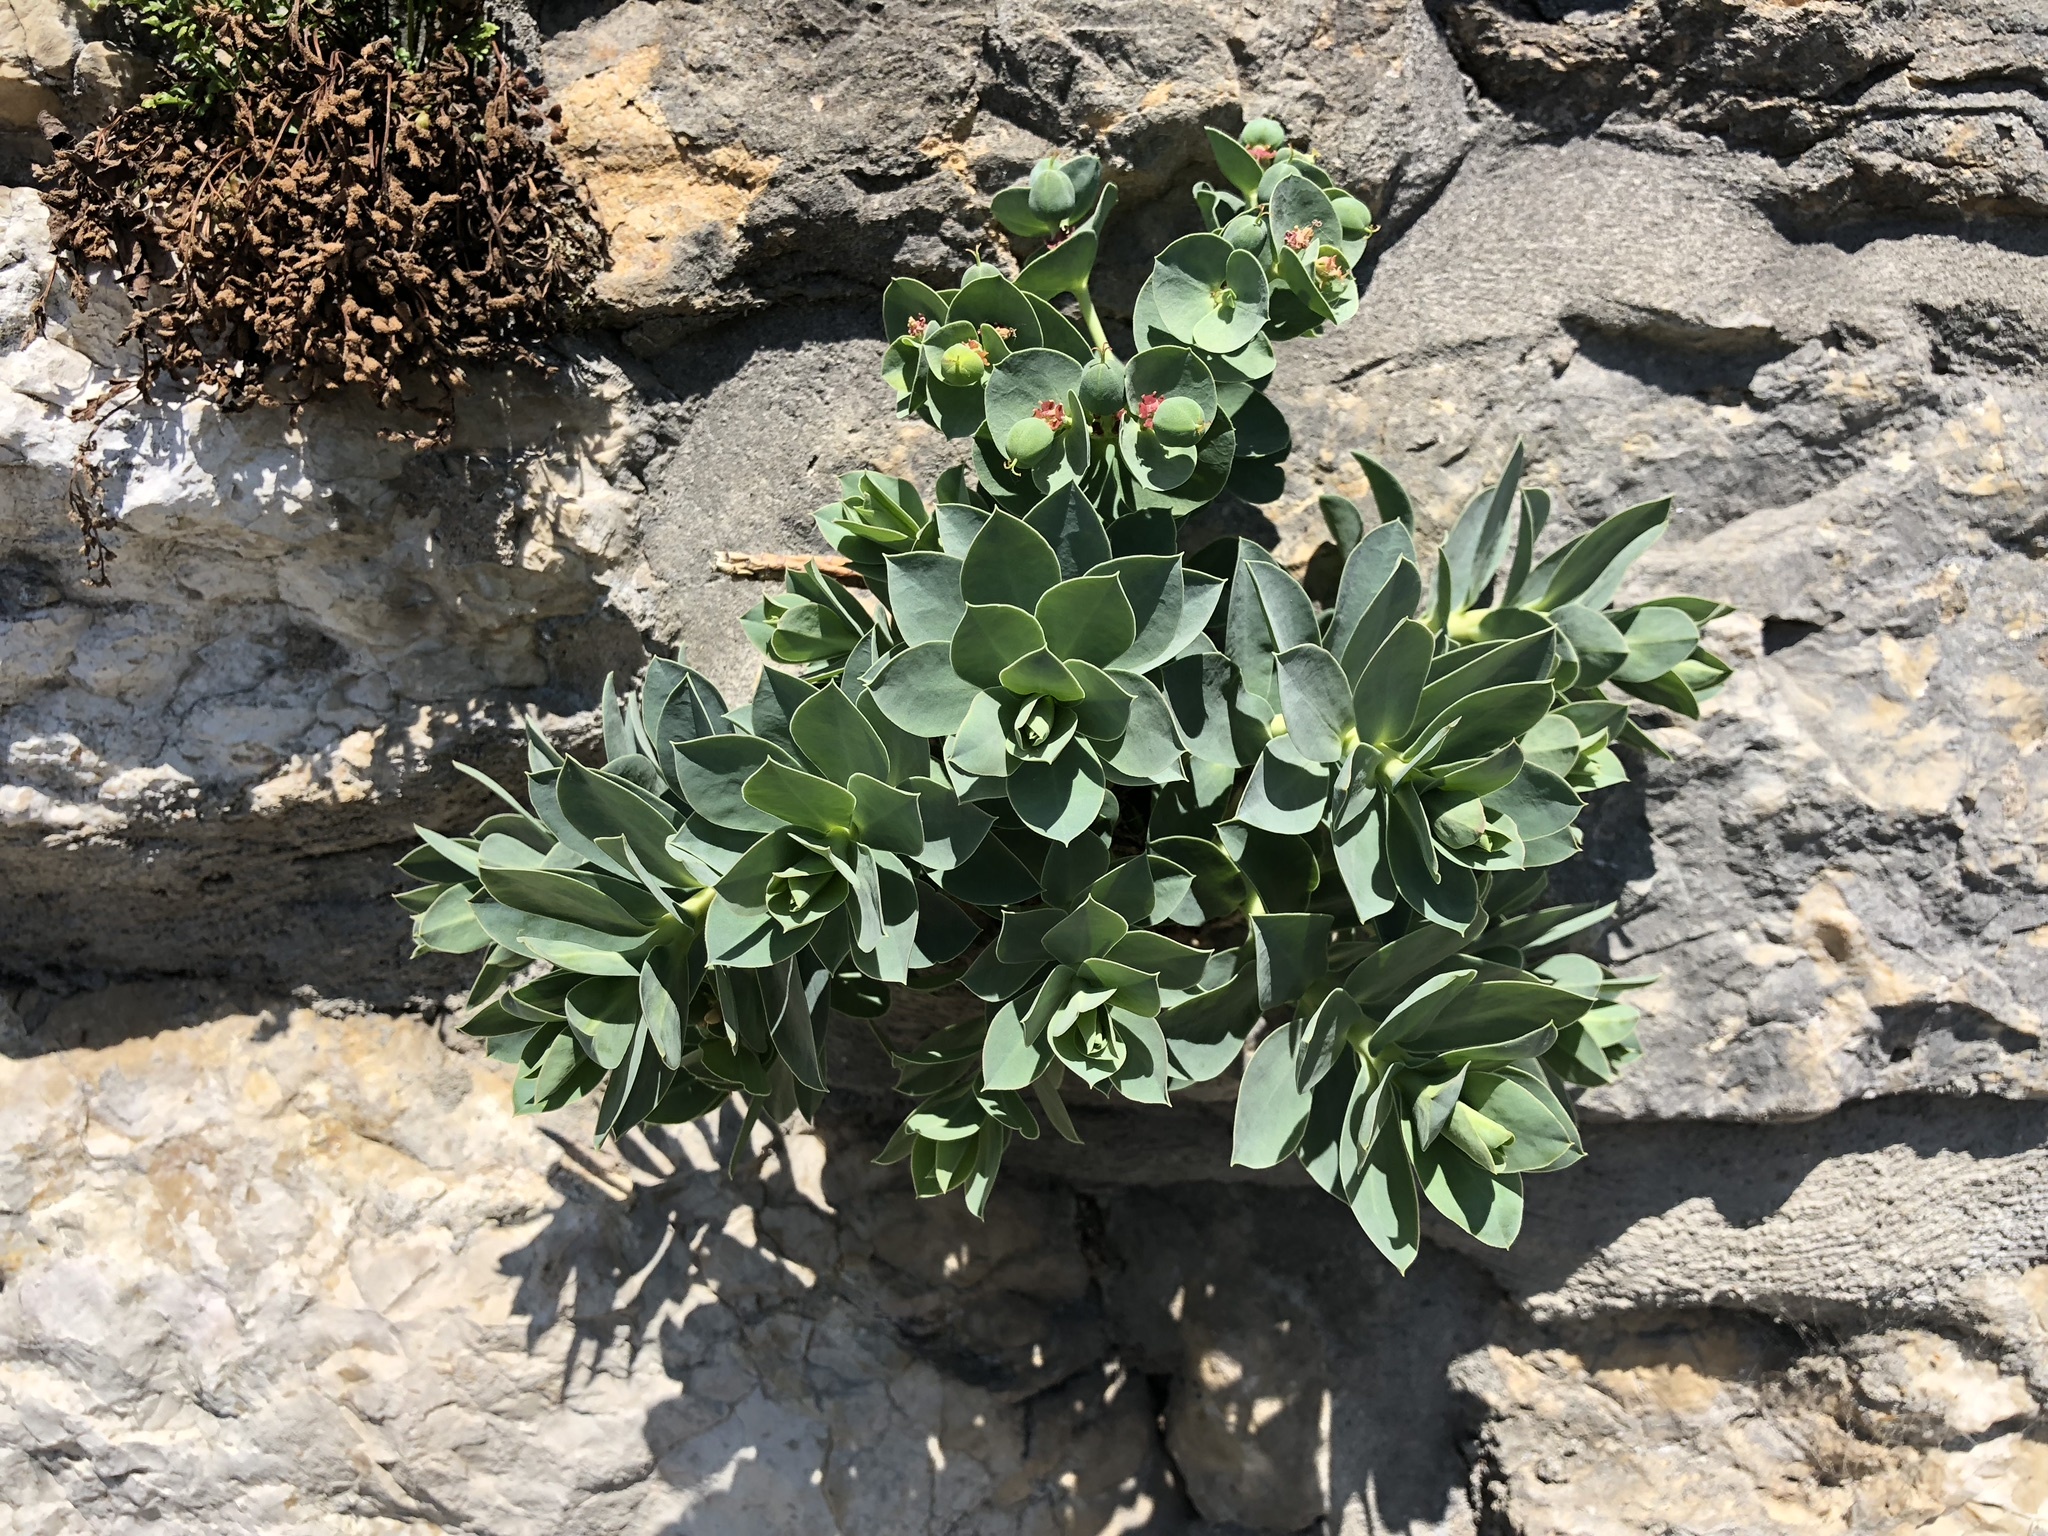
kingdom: Plantae
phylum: Tracheophyta
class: Magnoliopsida
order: Malpighiales
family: Euphorbiaceae
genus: Euphorbia
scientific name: Euphorbia myrsinites
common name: Myrtle spurge
